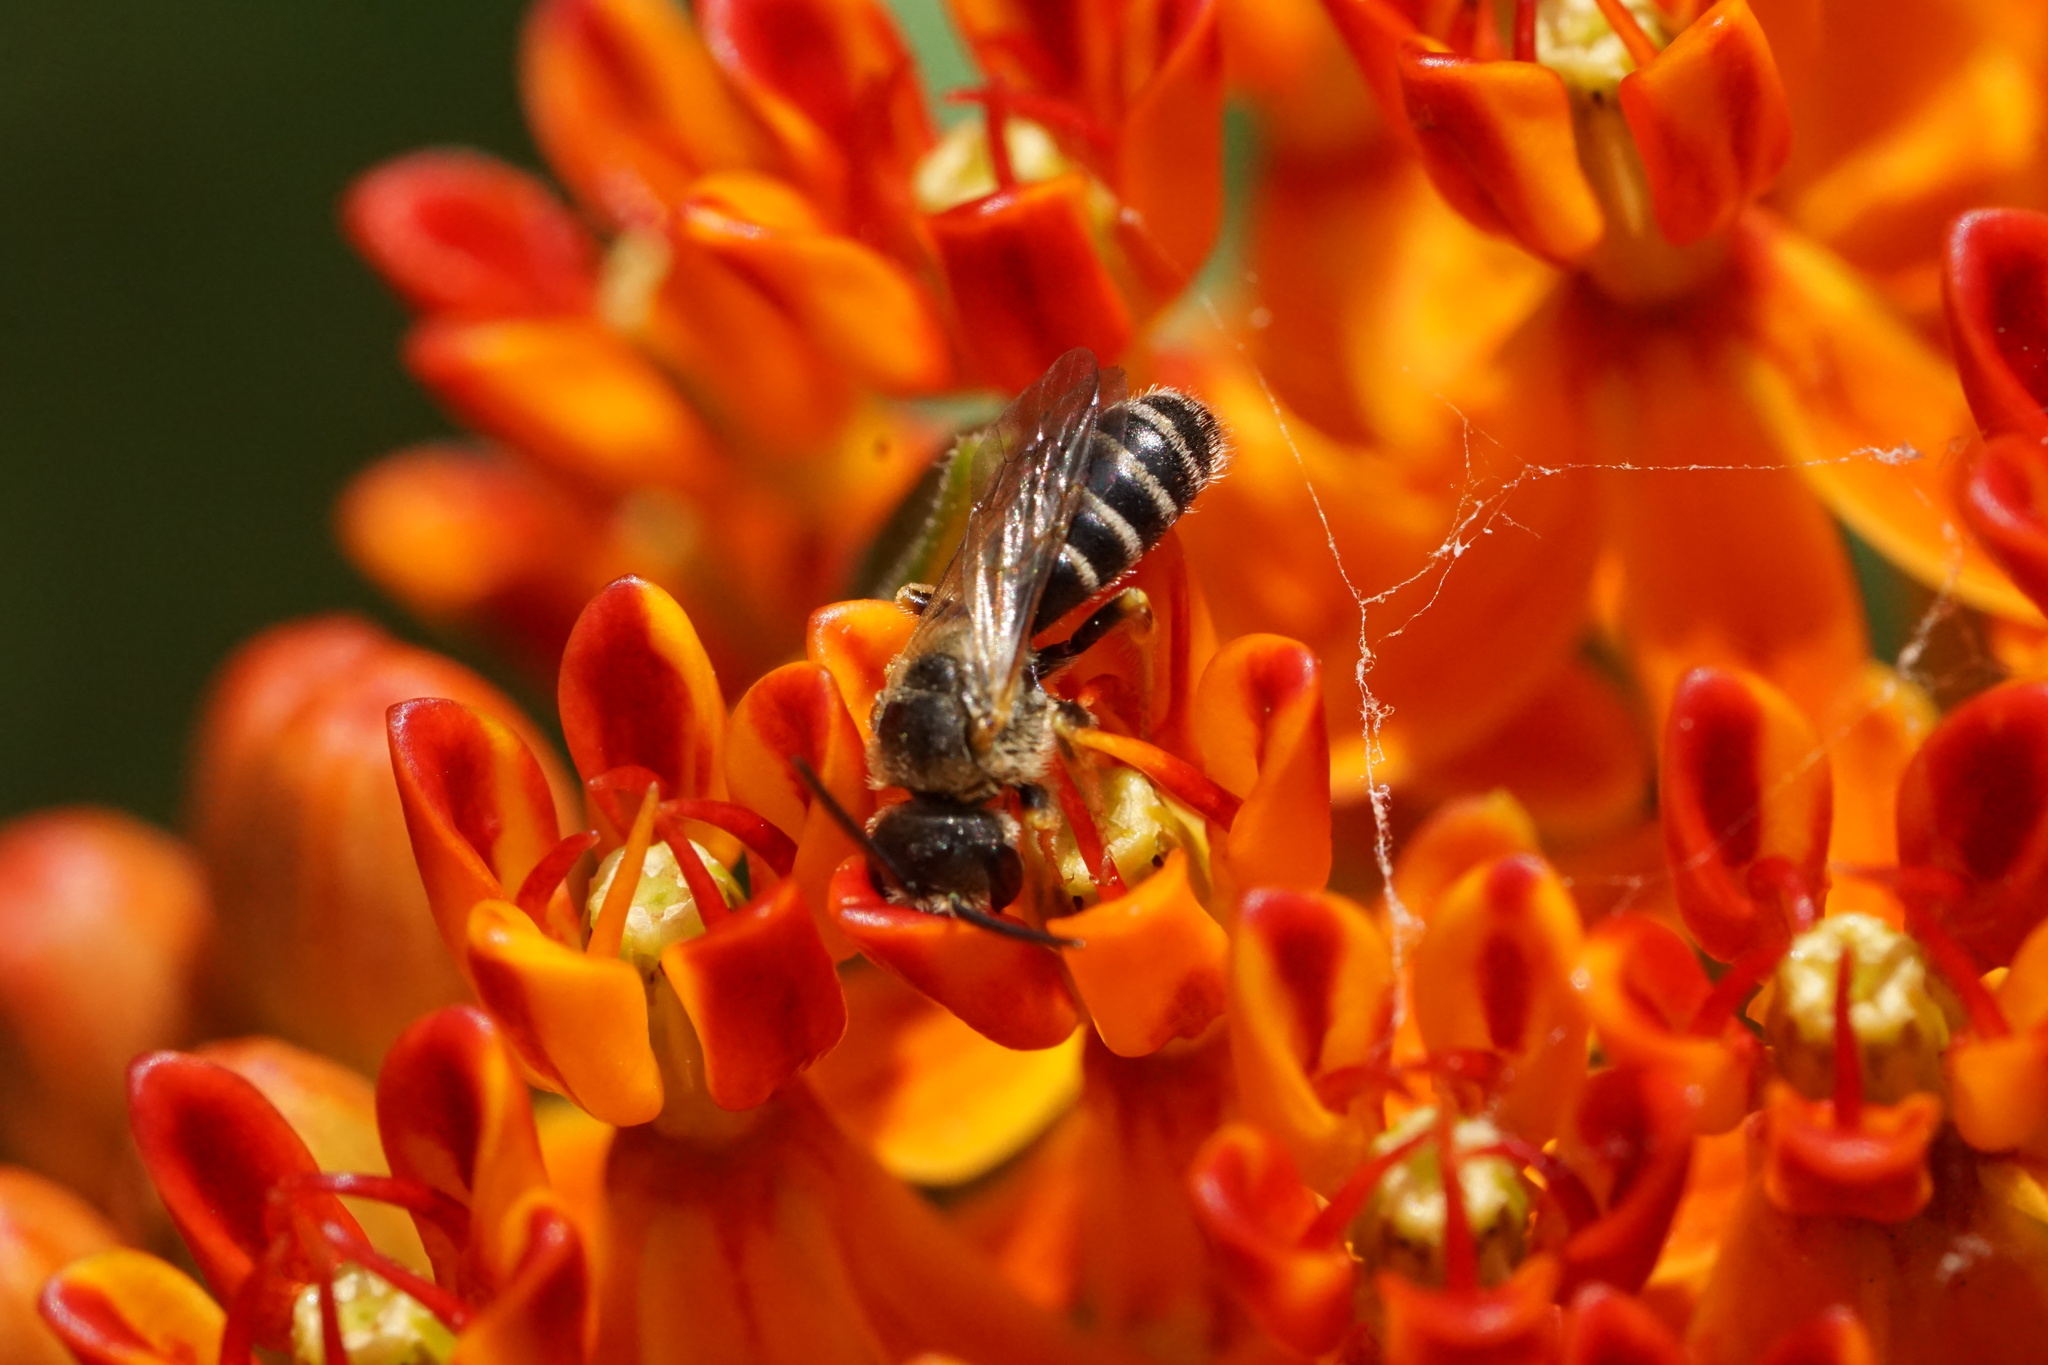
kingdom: Animalia
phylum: Arthropoda
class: Insecta
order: Hymenoptera
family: Halictidae
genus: Halictus
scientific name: Halictus ligatus
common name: Ligated furrow bee
